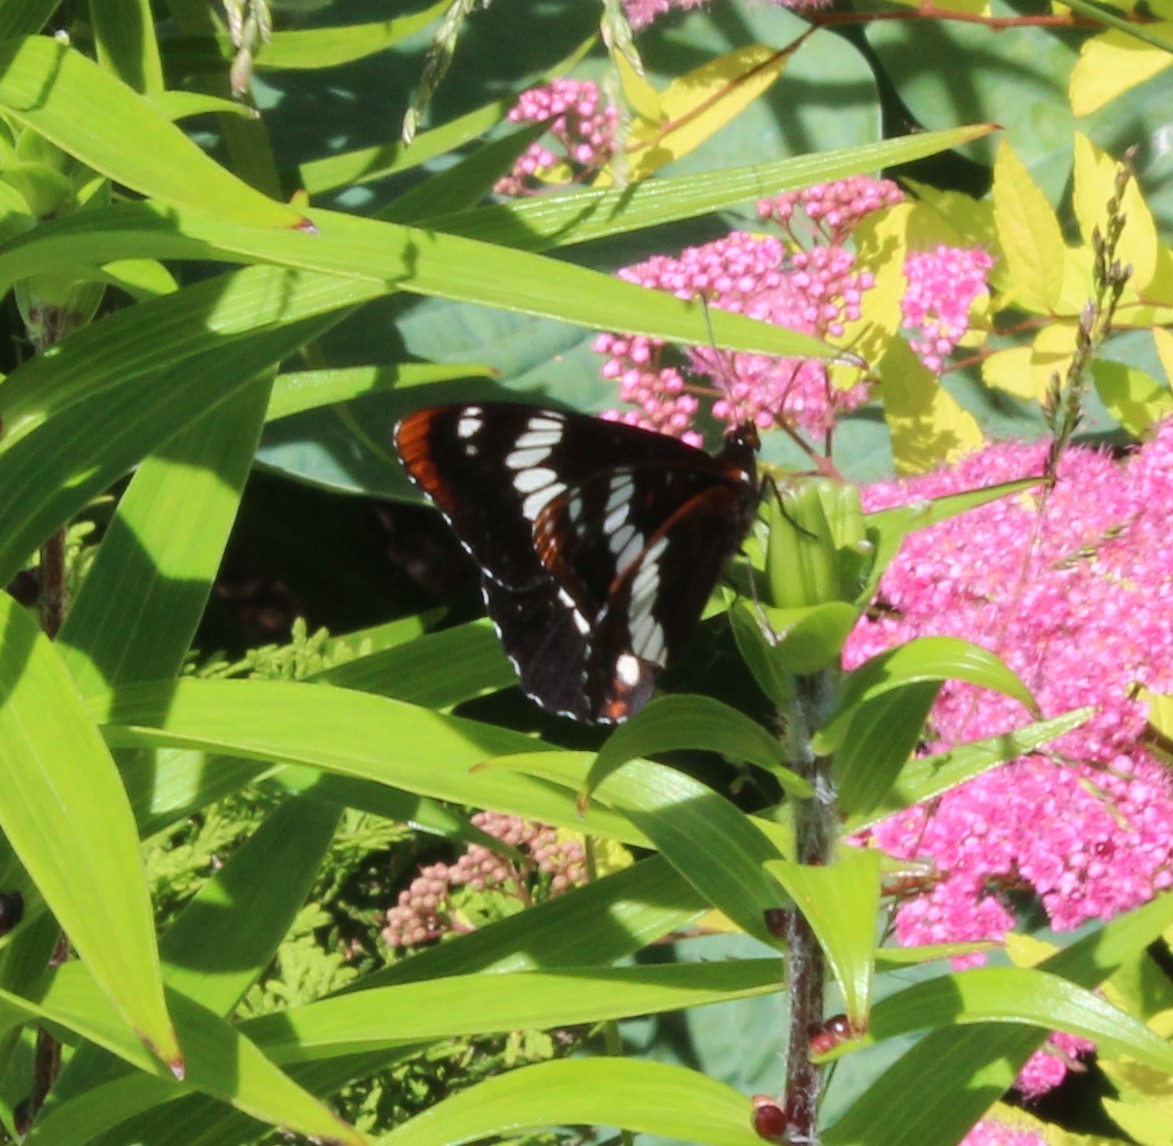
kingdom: Animalia
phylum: Arthropoda
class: Insecta
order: Lepidoptera
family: Nymphalidae
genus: Limenitis
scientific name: Limenitis lorquini
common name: Lorquin's admiral
